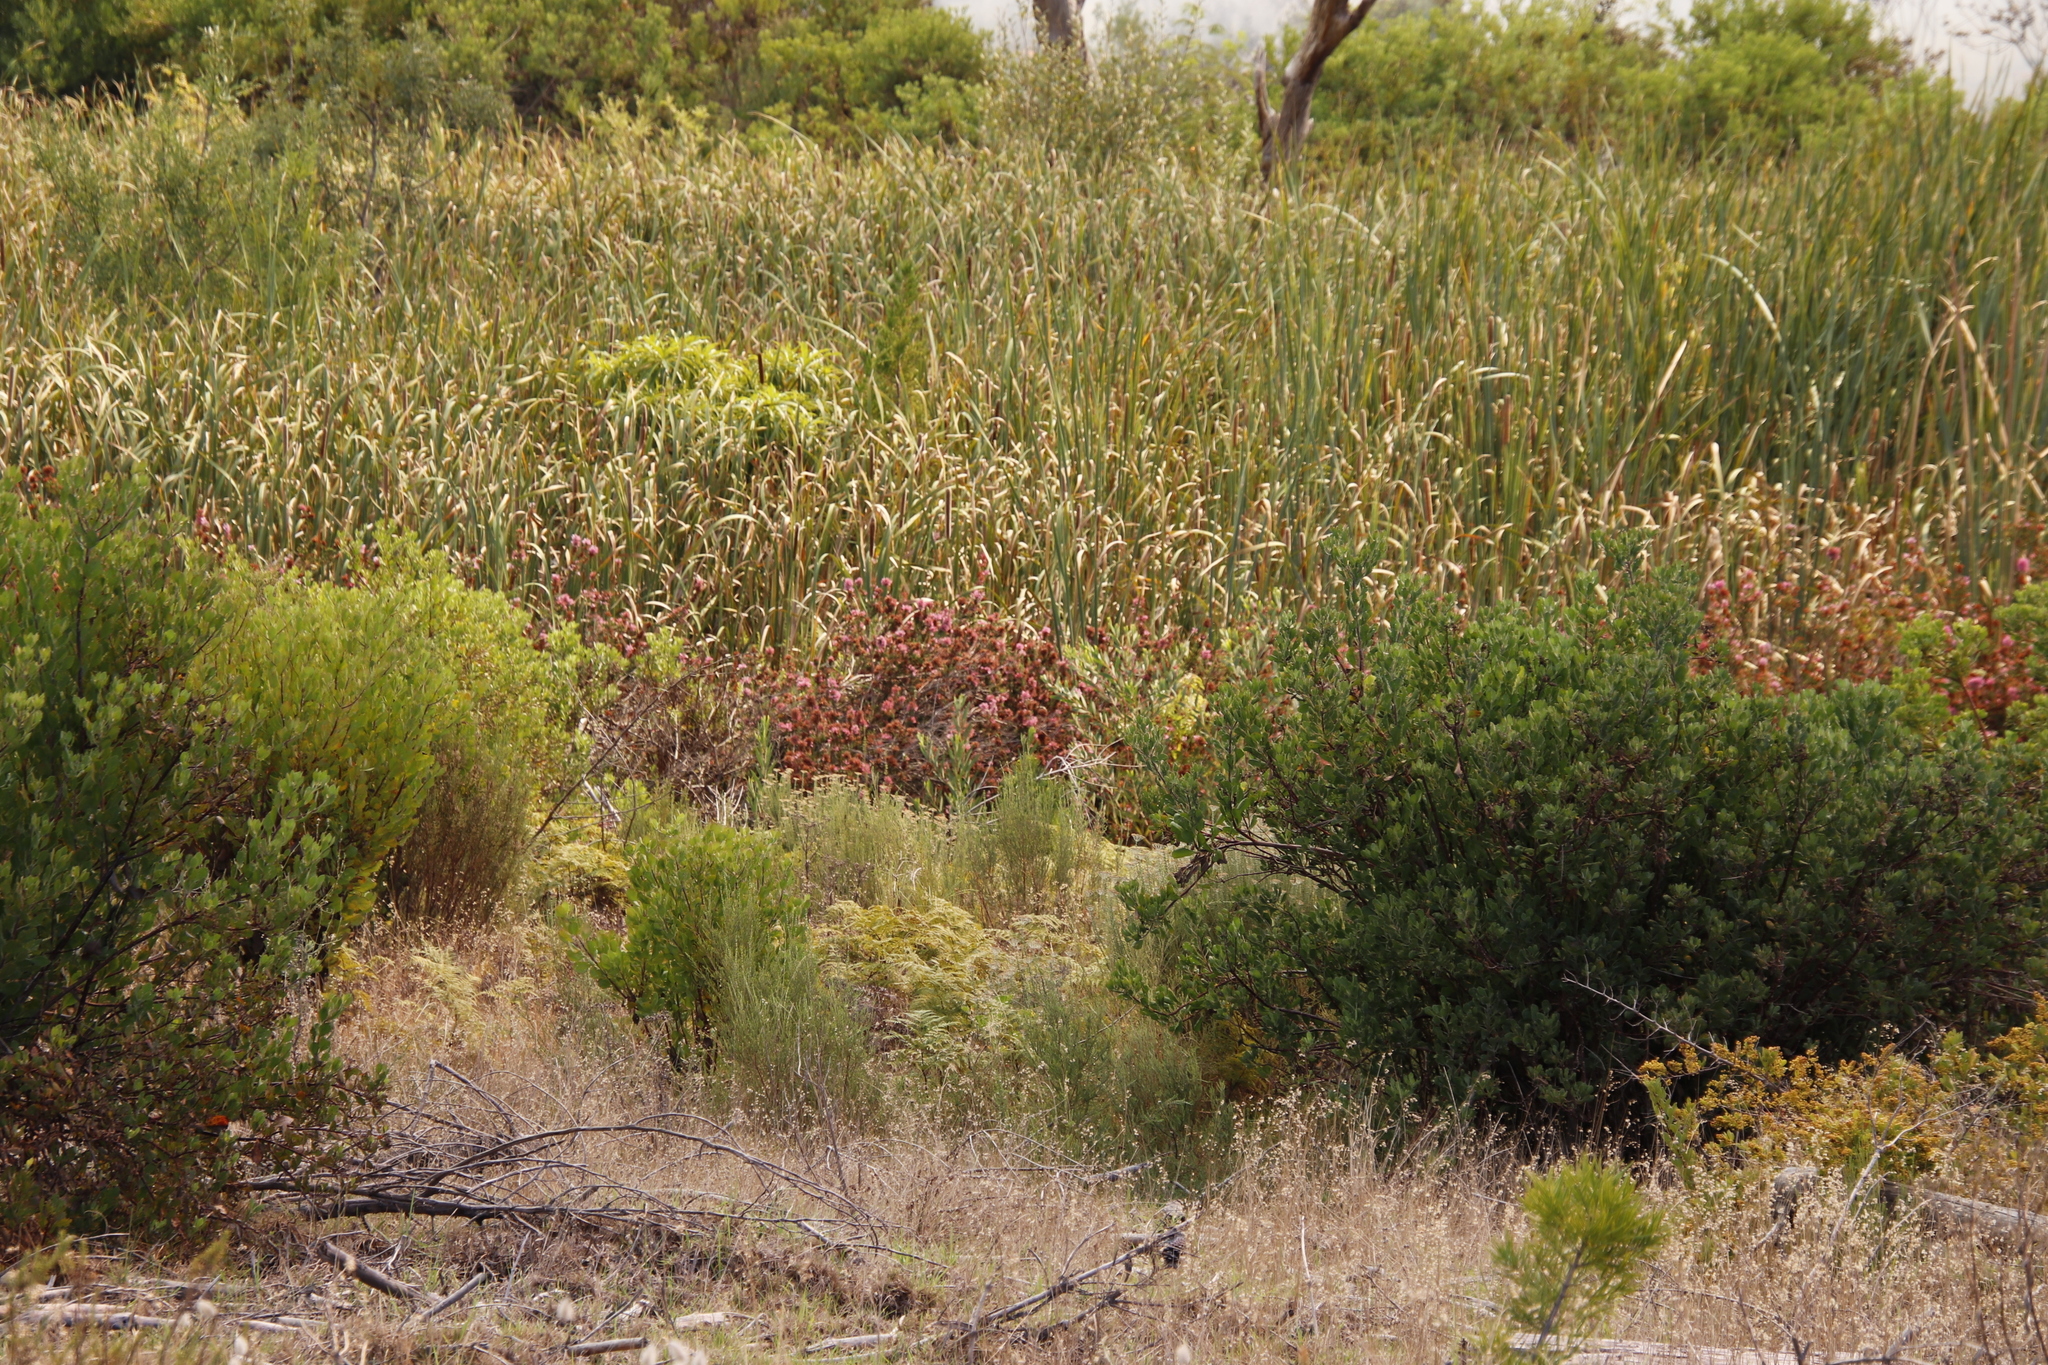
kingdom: Plantae
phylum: Tracheophyta
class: Magnoliopsida
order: Ericales
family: Ericaceae
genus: Erica
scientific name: Erica verticillata
